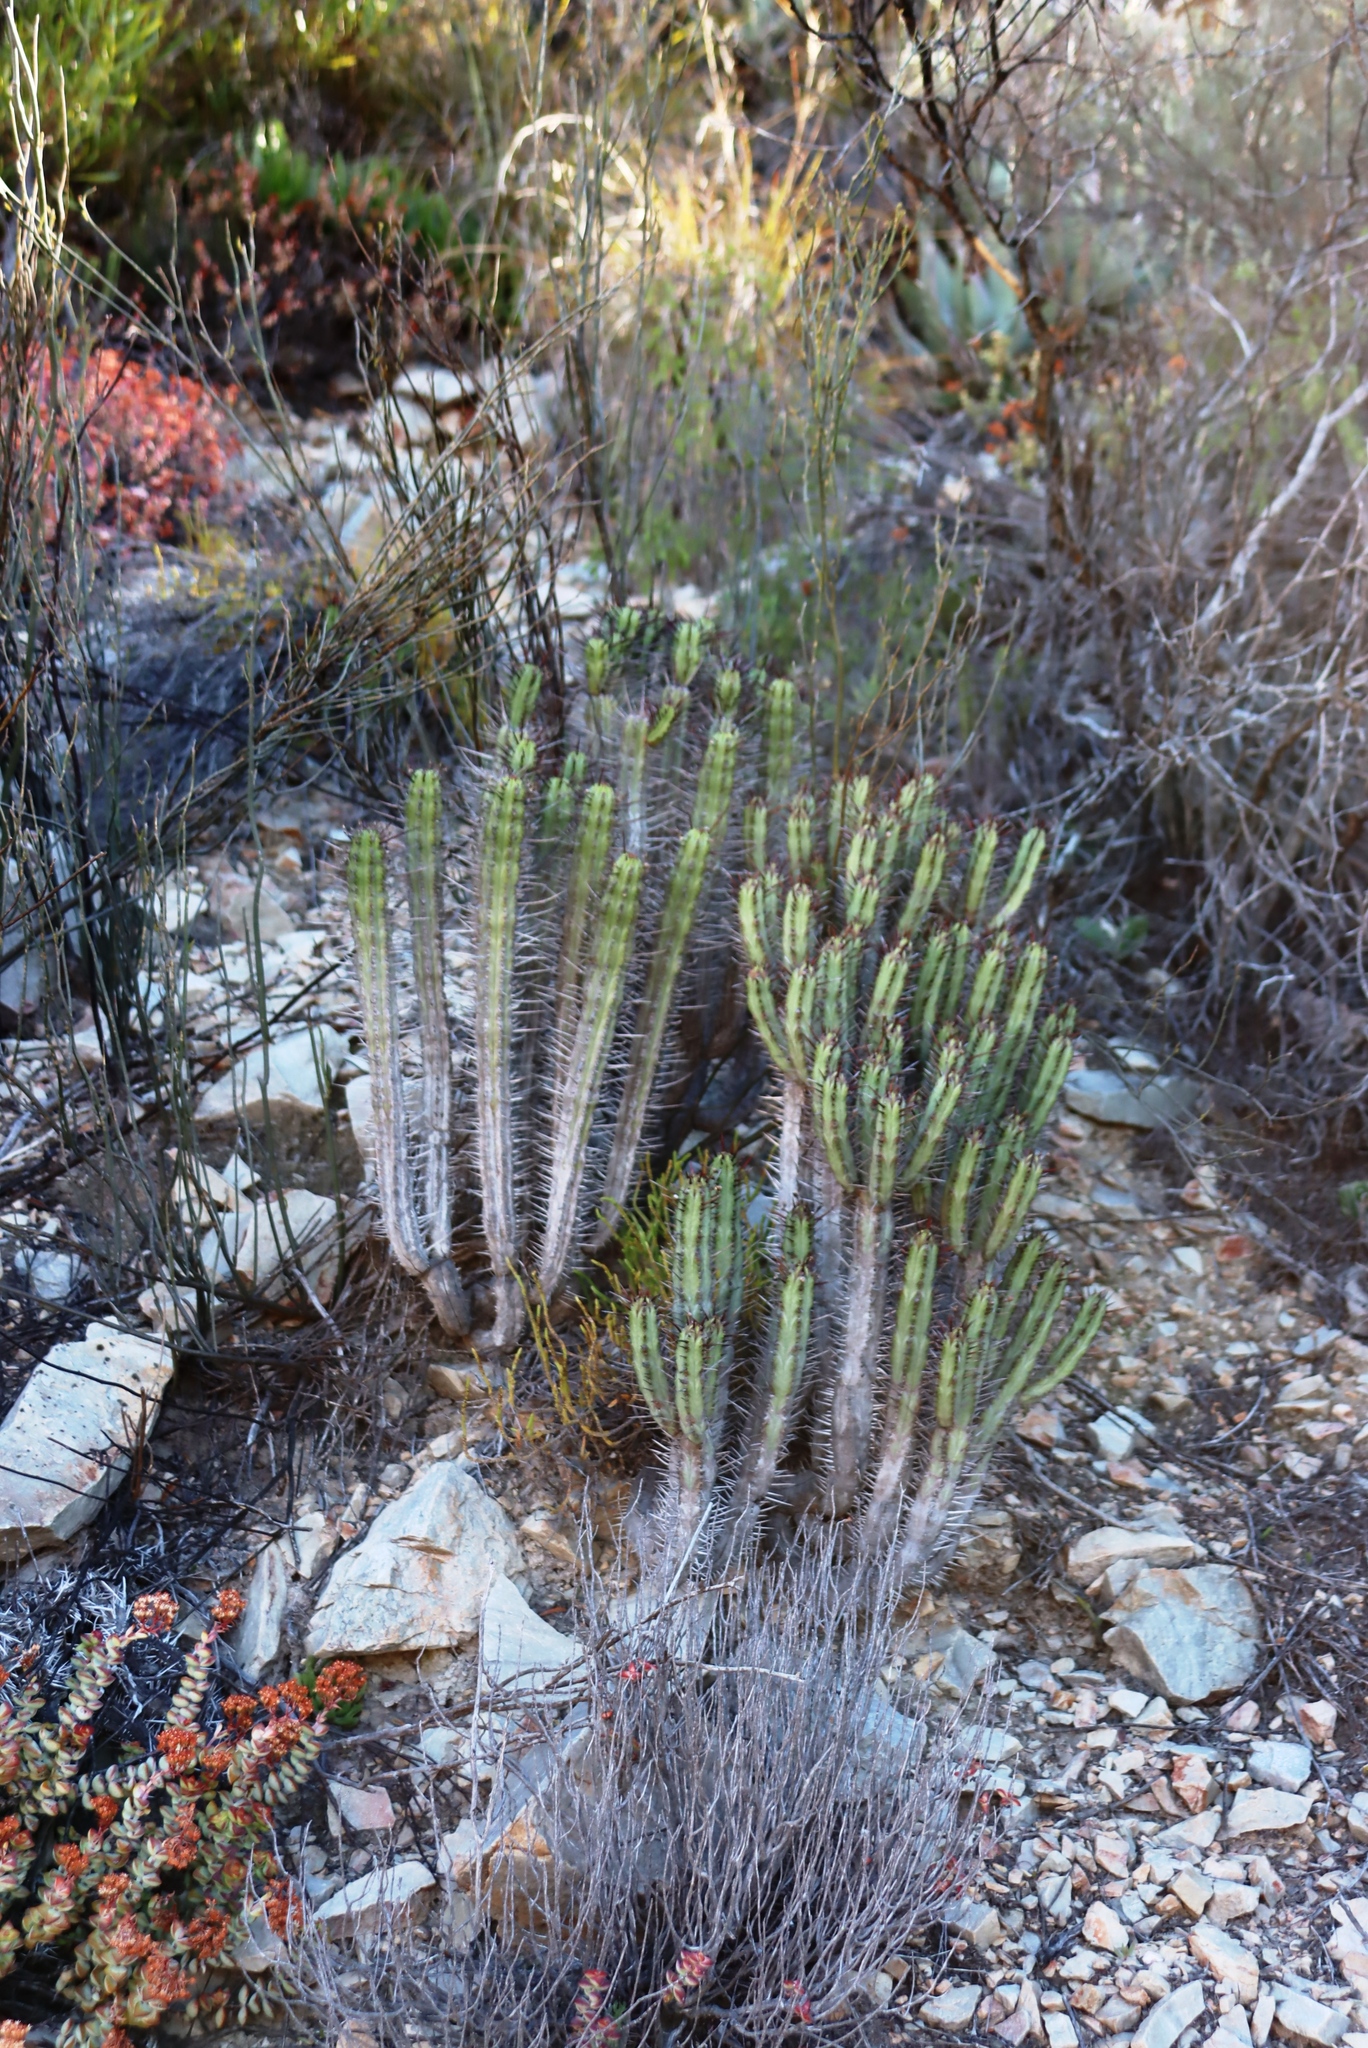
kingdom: Plantae
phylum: Tracheophyta
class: Magnoliopsida
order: Malpighiales
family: Euphorbiaceae
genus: Euphorbia
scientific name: Euphorbia heptagona
